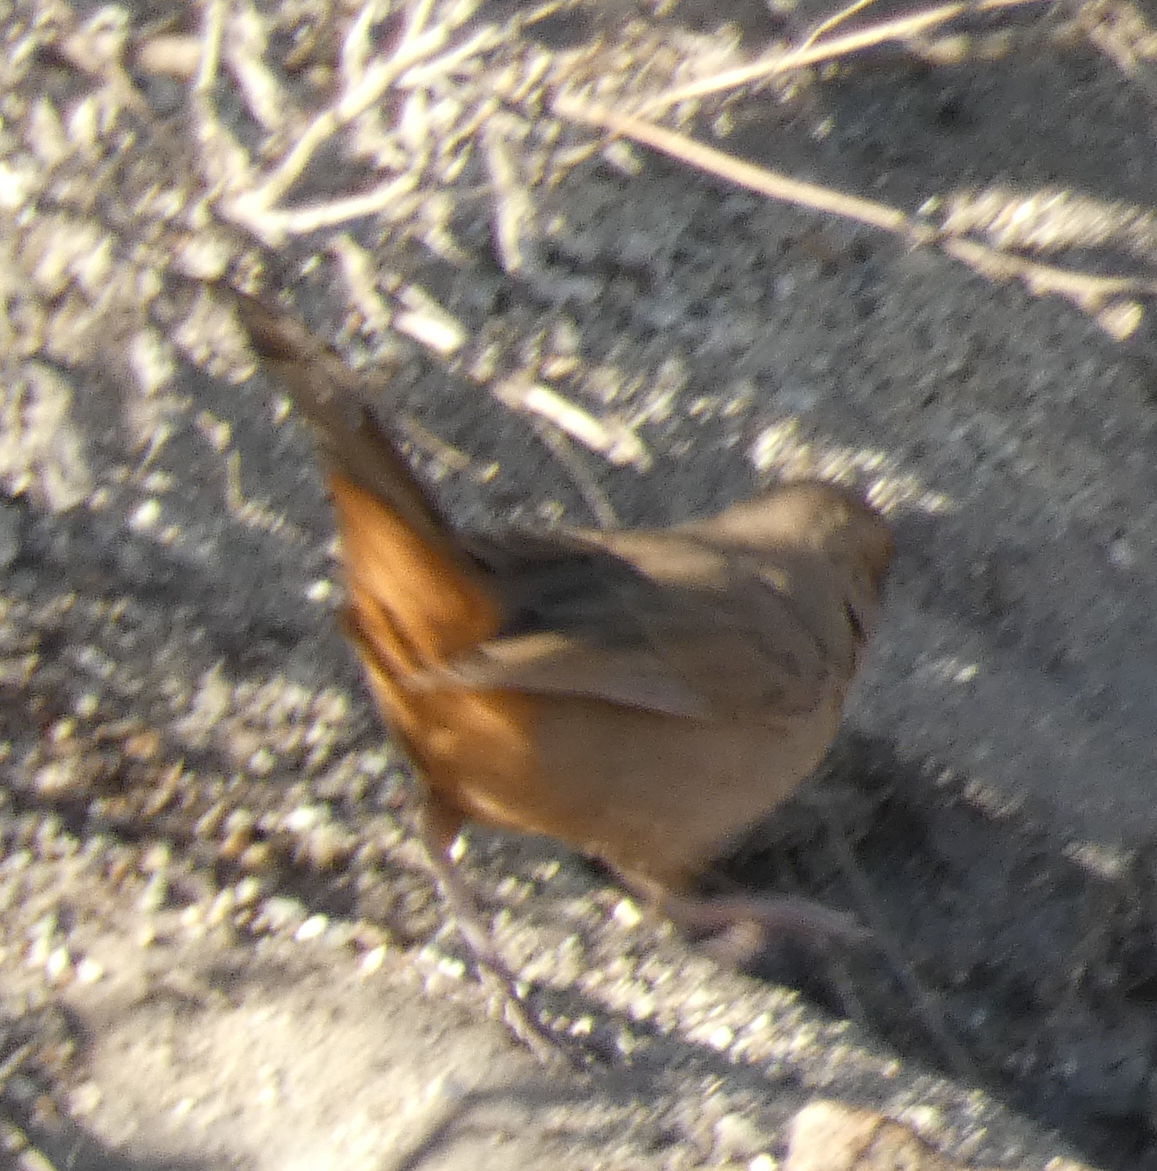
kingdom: Animalia
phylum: Chordata
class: Aves
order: Passeriformes
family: Passerellidae
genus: Melozone
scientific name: Melozone aberti
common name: Abert's towhee
